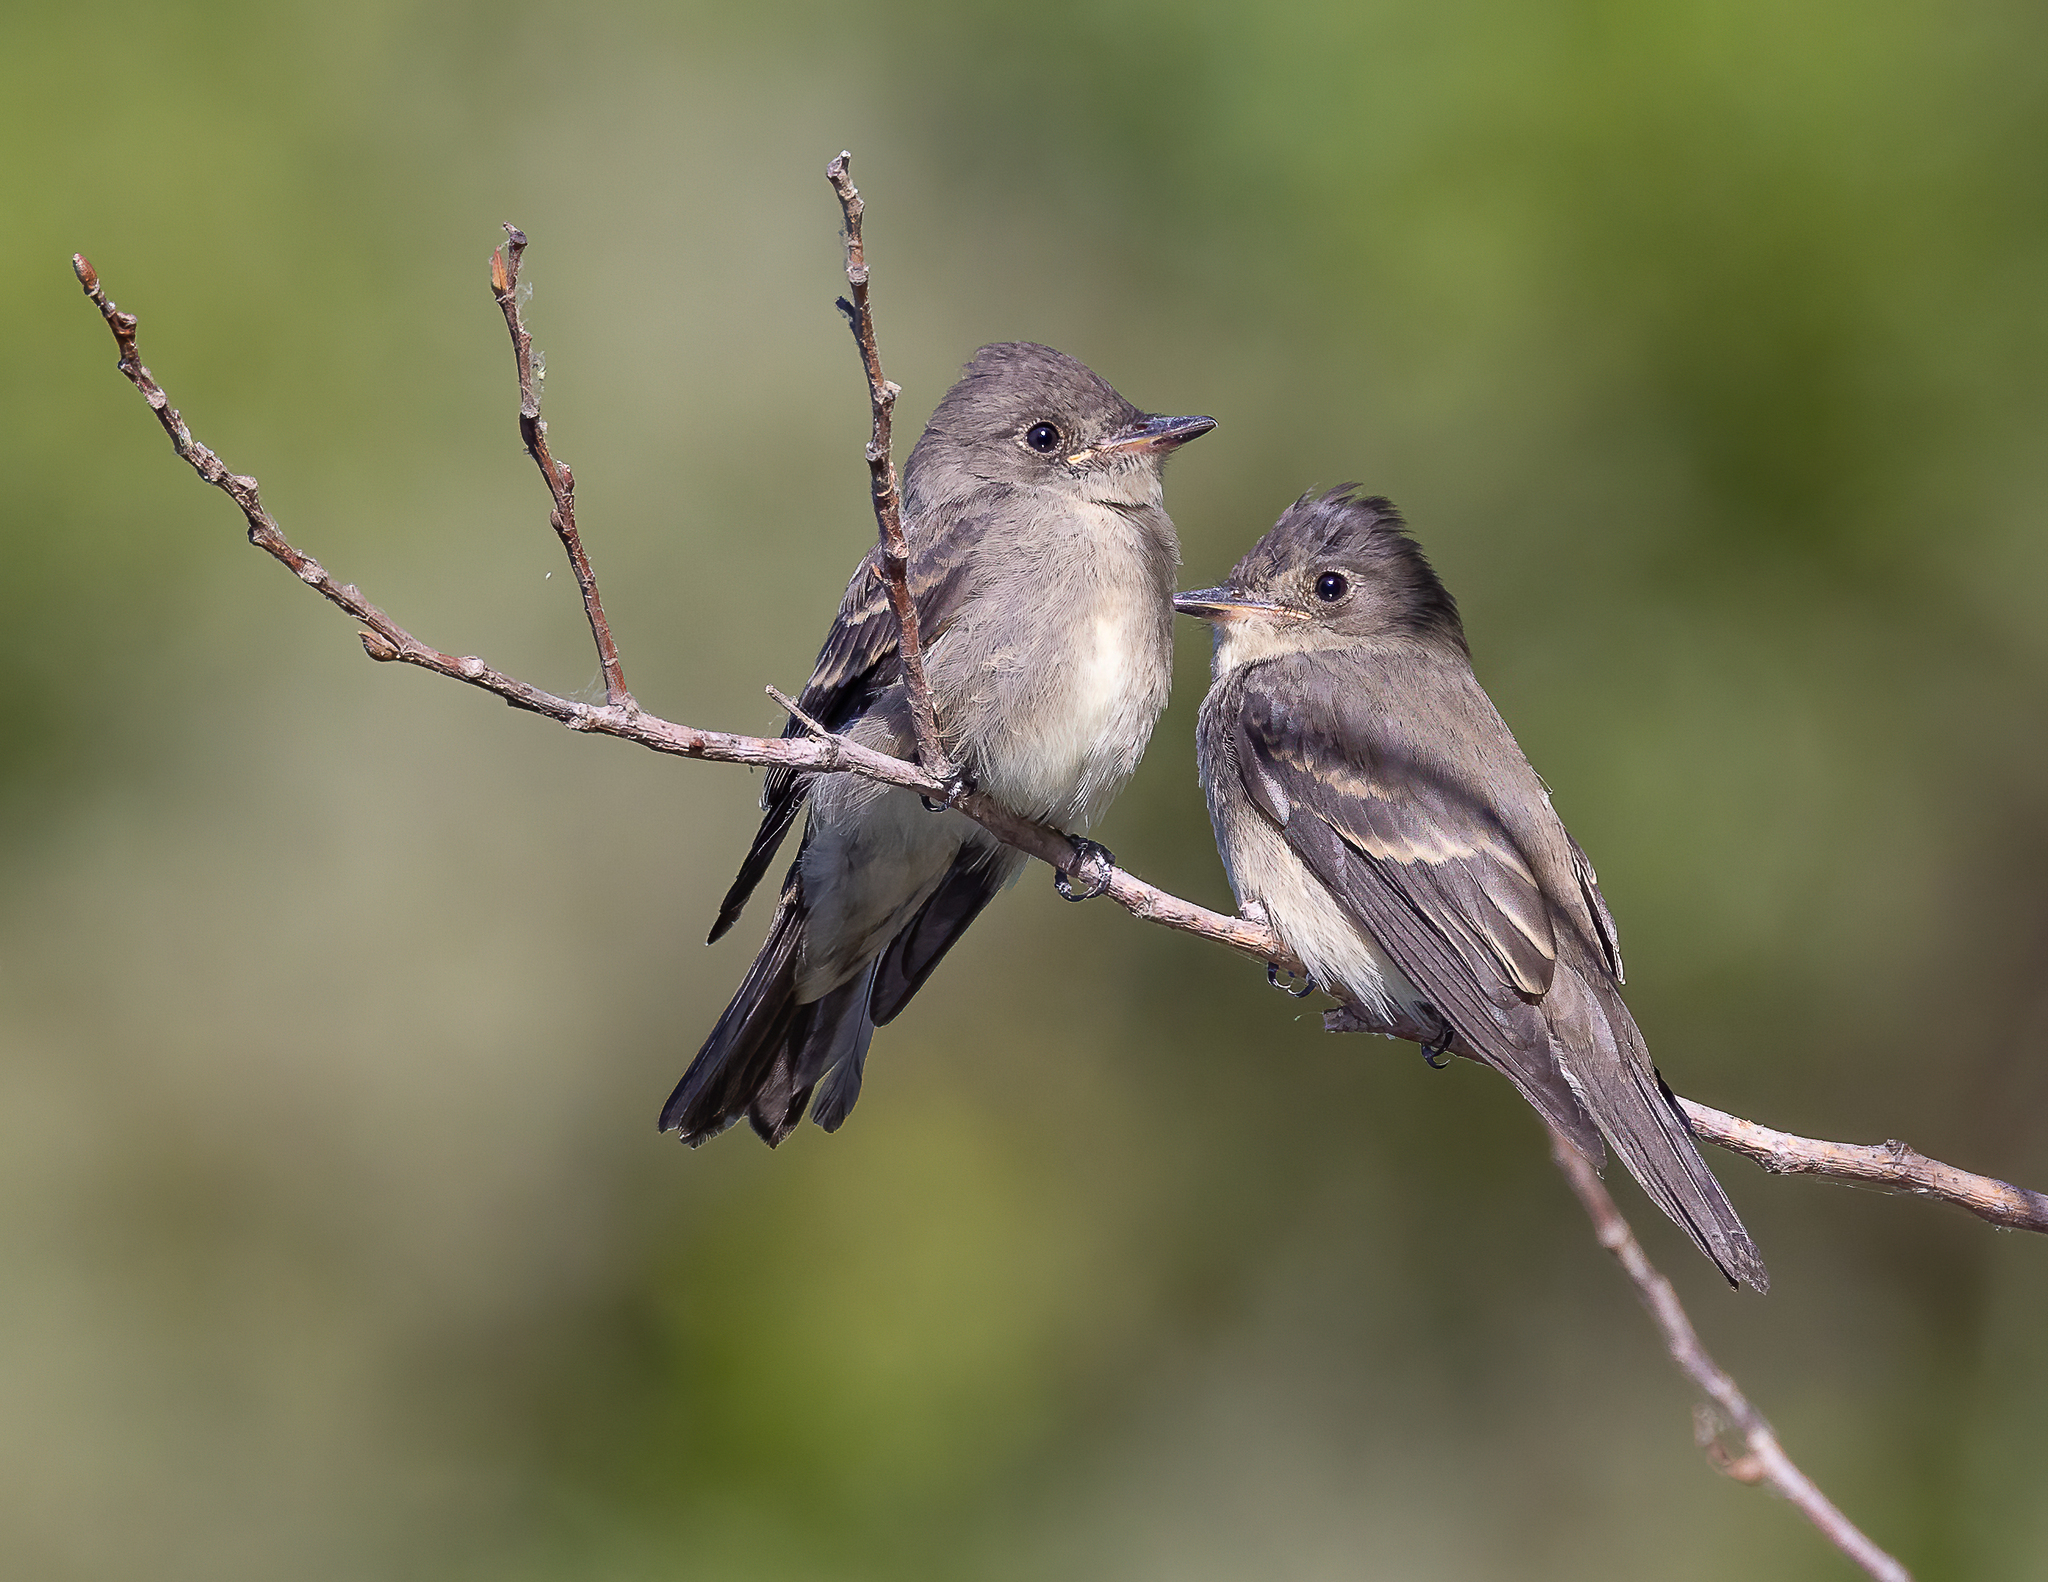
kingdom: Animalia
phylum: Chordata
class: Aves
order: Passeriformes
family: Tyrannidae
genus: Contopus
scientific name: Contopus sordidulus
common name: Western wood-pewee
